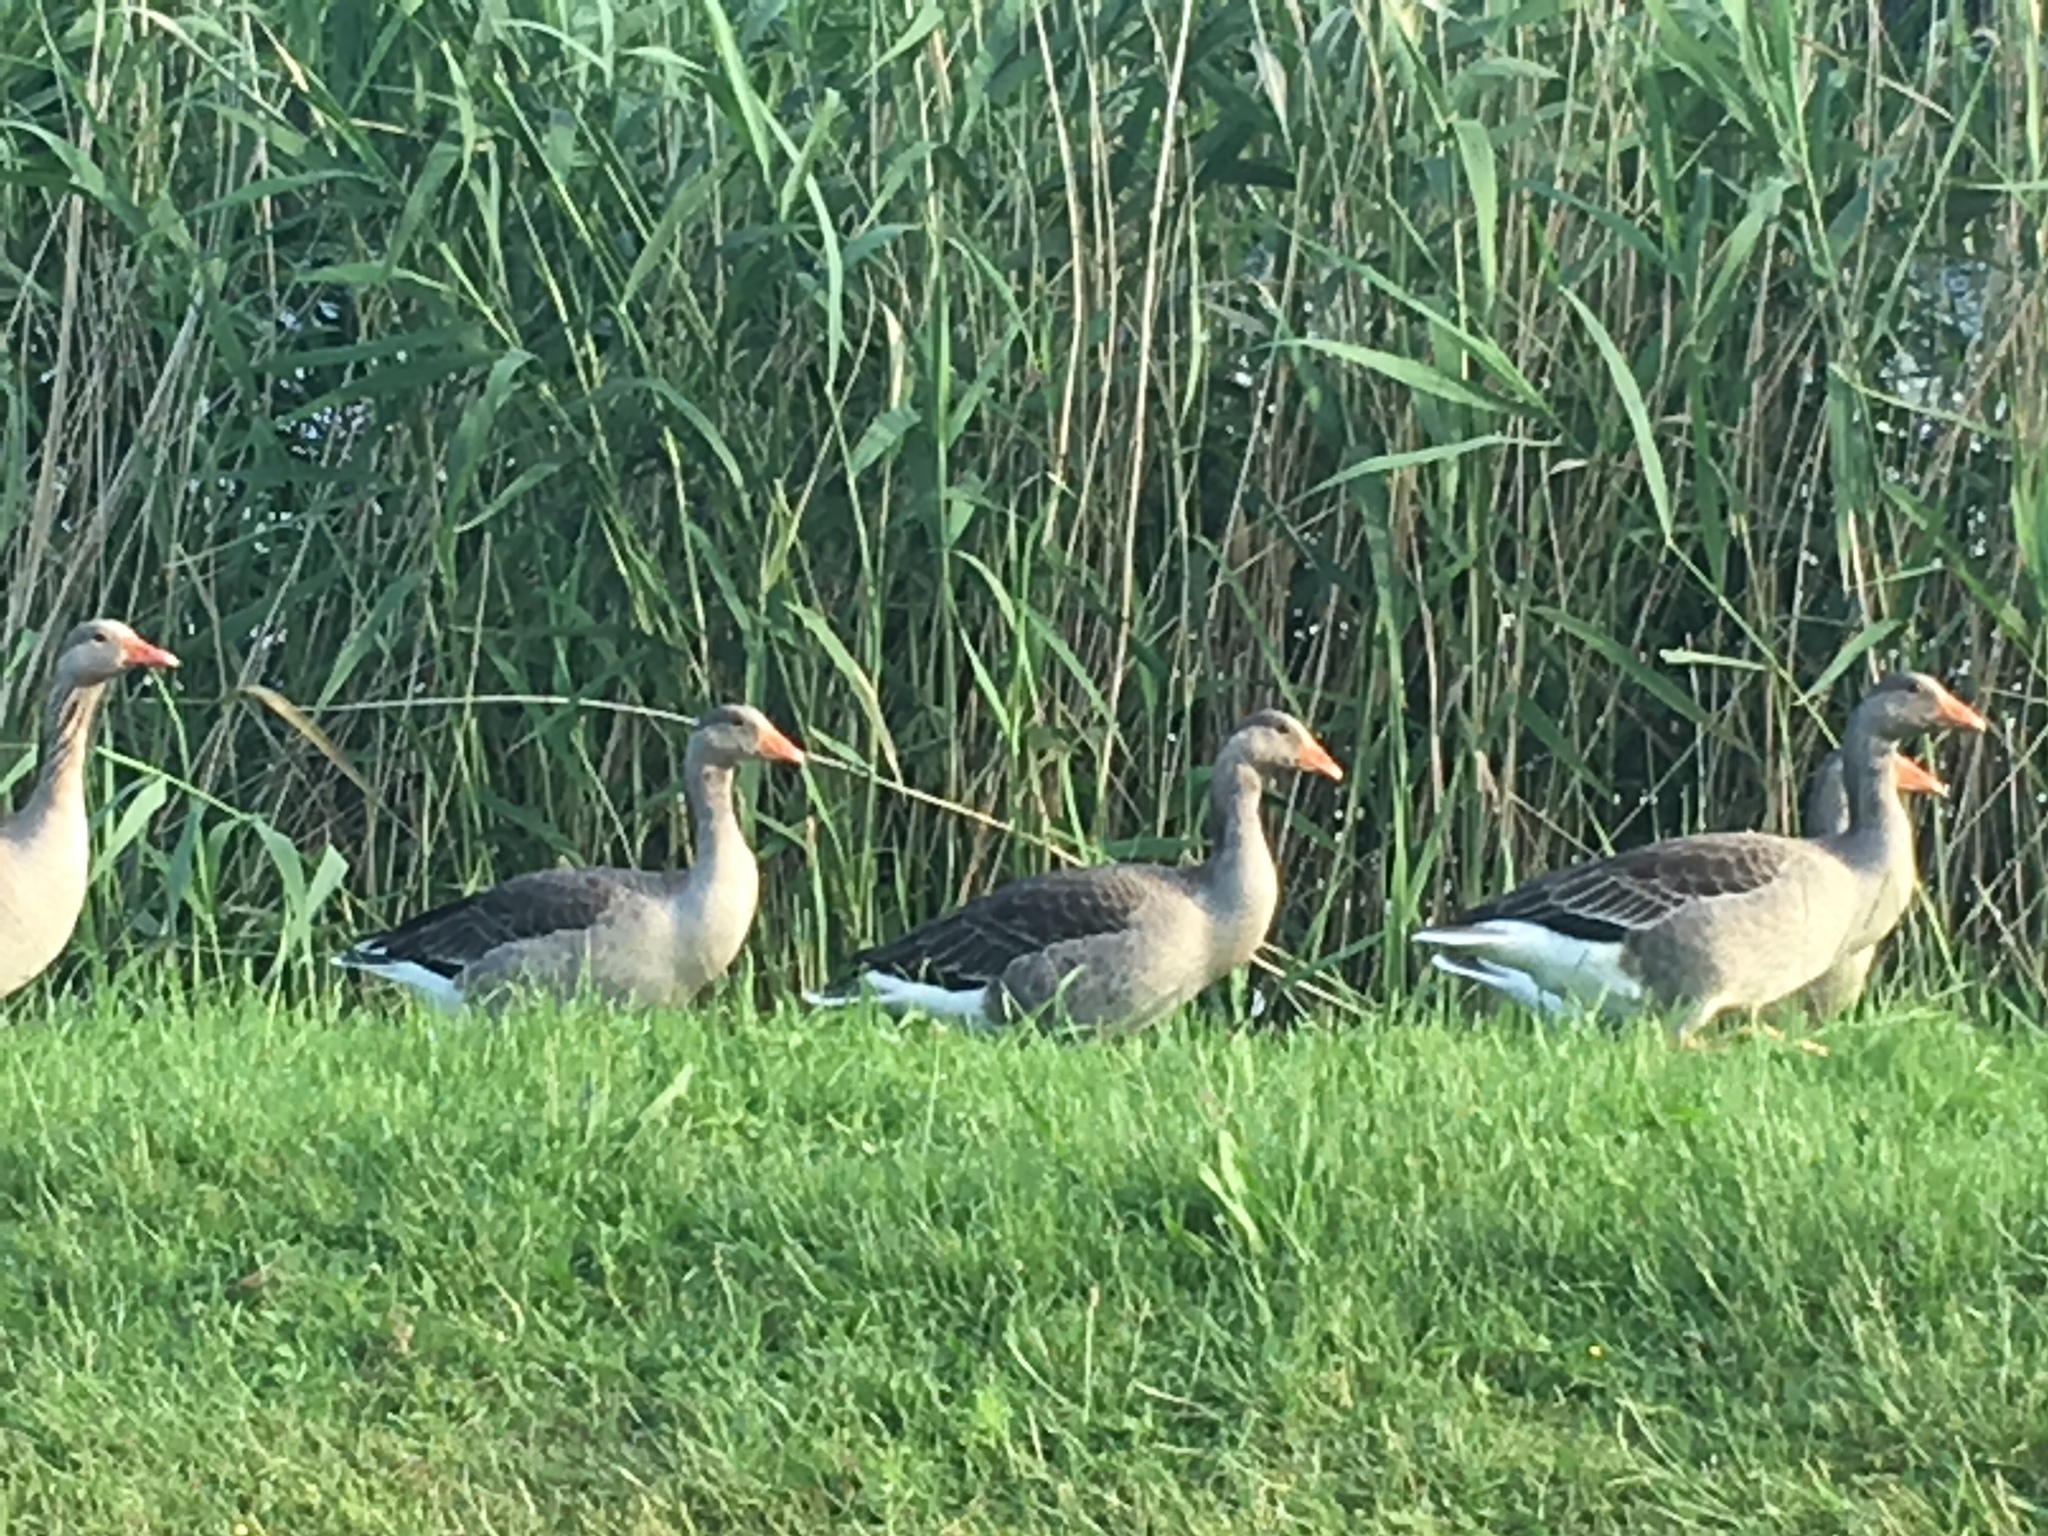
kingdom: Animalia
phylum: Chordata
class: Aves
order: Anseriformes
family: Anatidae
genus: Anser
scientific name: Anser anser
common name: Greylag goose
